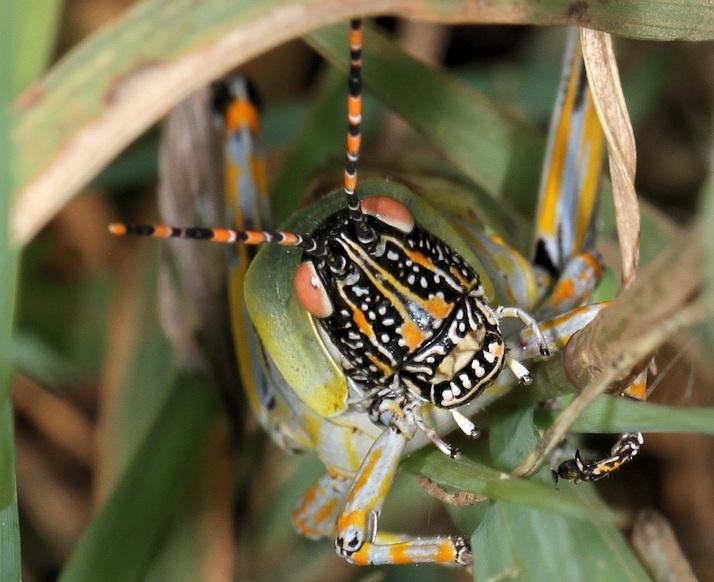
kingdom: Animalia
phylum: Arthropoda
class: Insecta
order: Orthoptera
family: Pyrgomorphidae
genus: Zonocerus
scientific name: Zonocerus elegans
